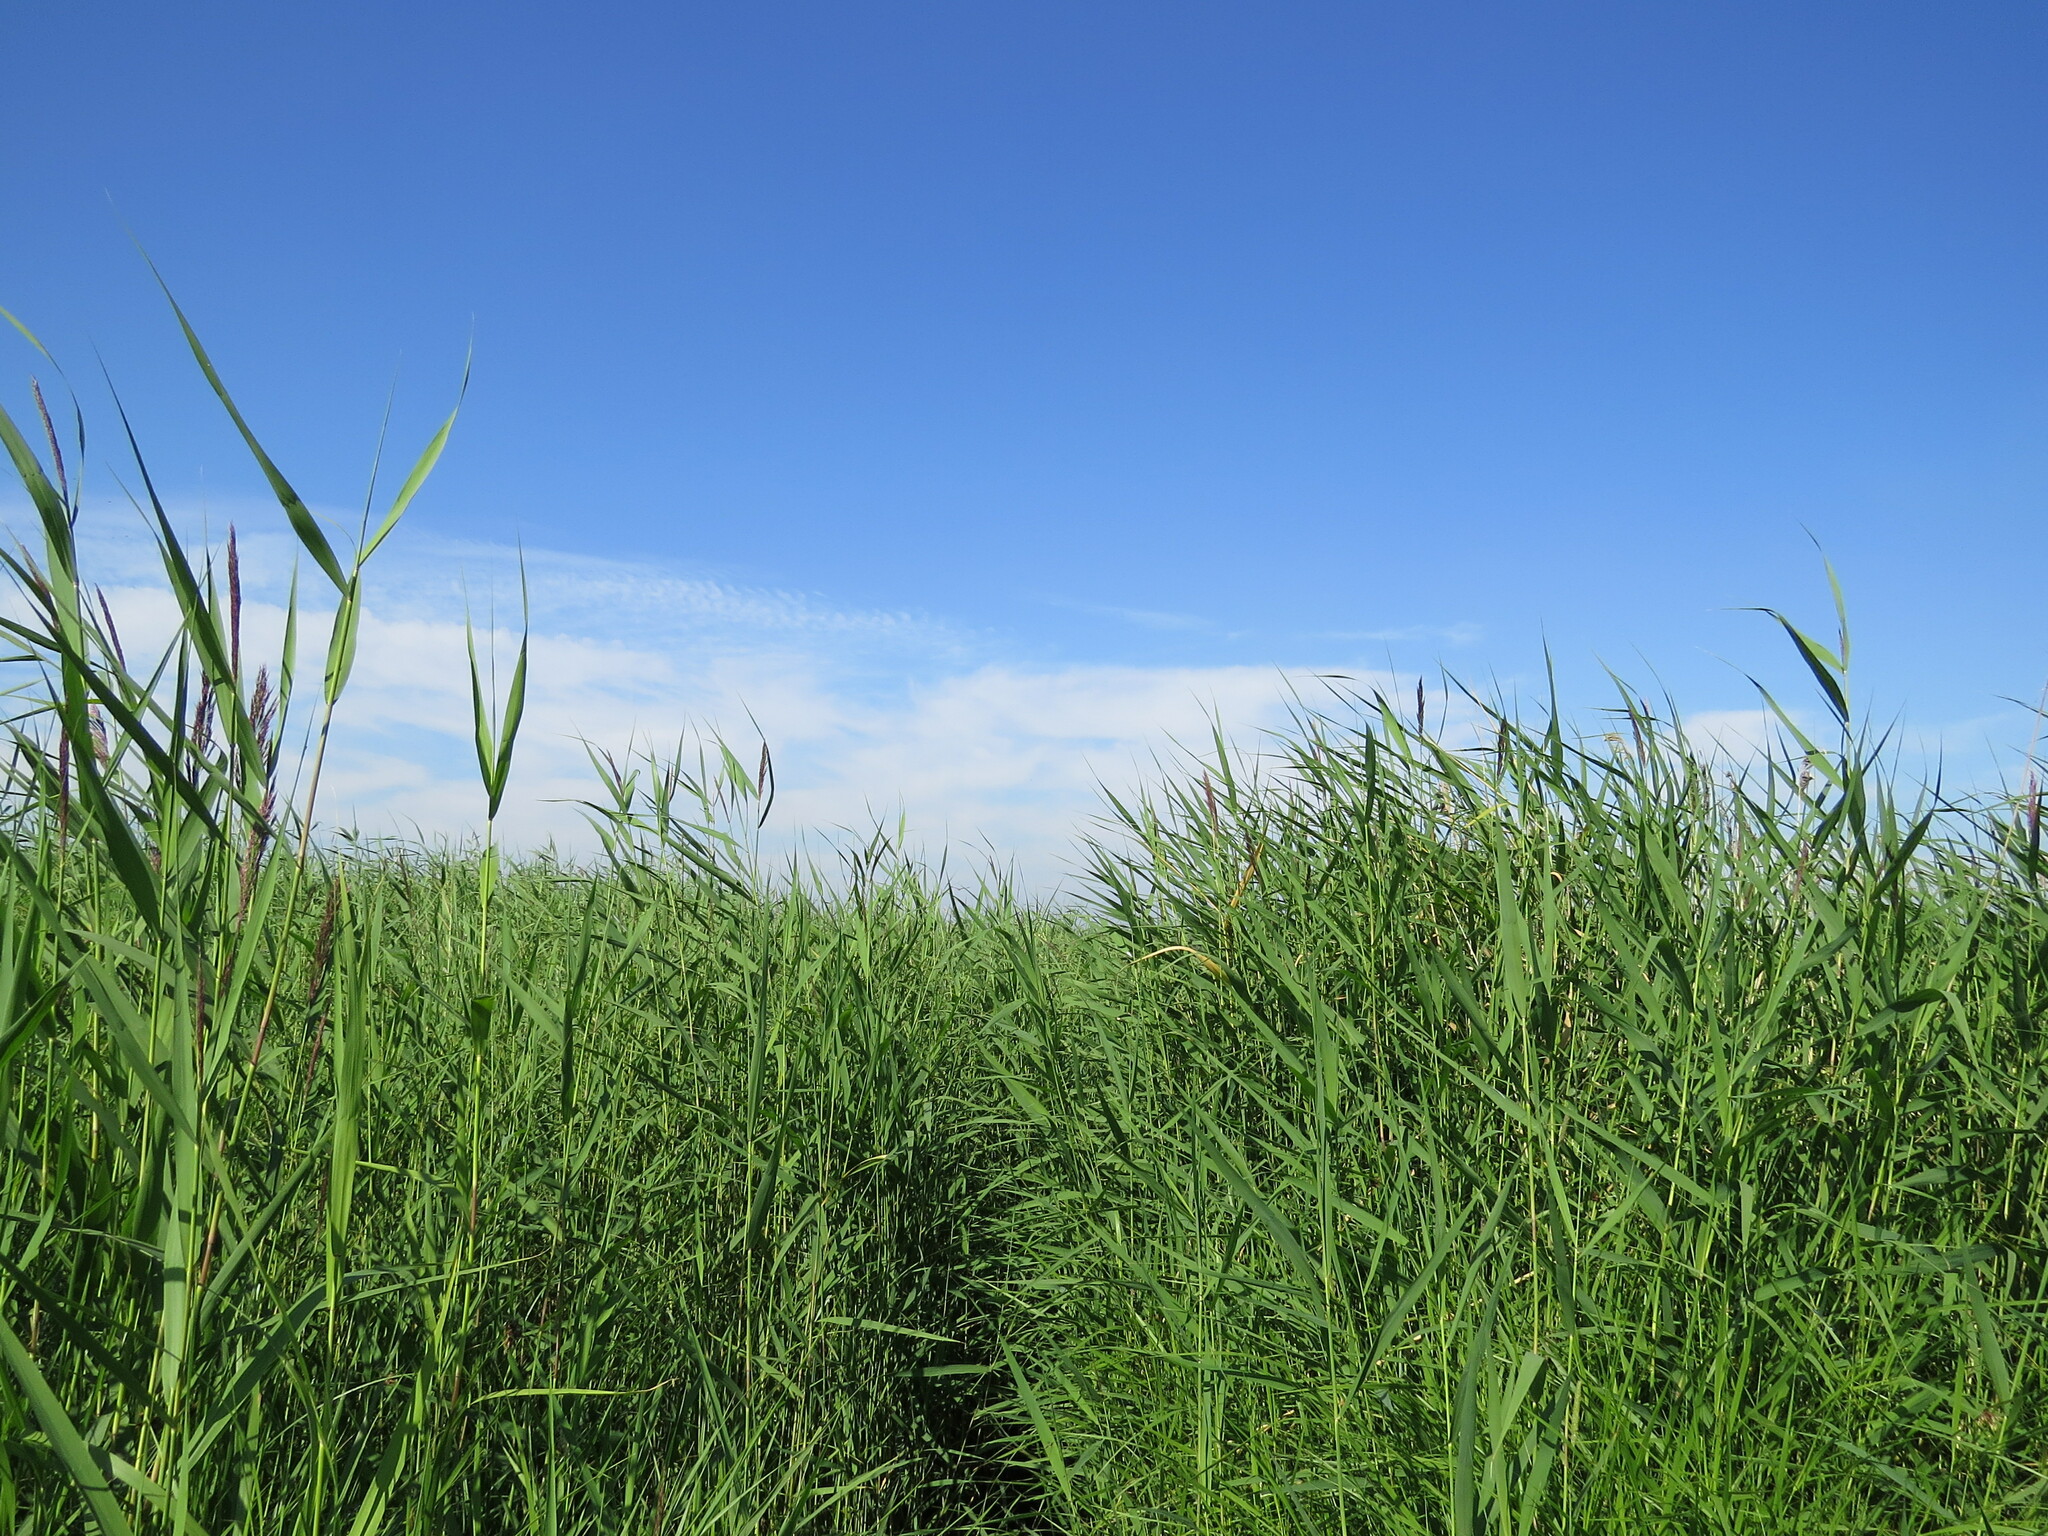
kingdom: Plantae
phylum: Tracheophyta
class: Liliopsida
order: Poales
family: Poaceae
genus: Phragmites
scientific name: Phragmites australis
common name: Common reed
